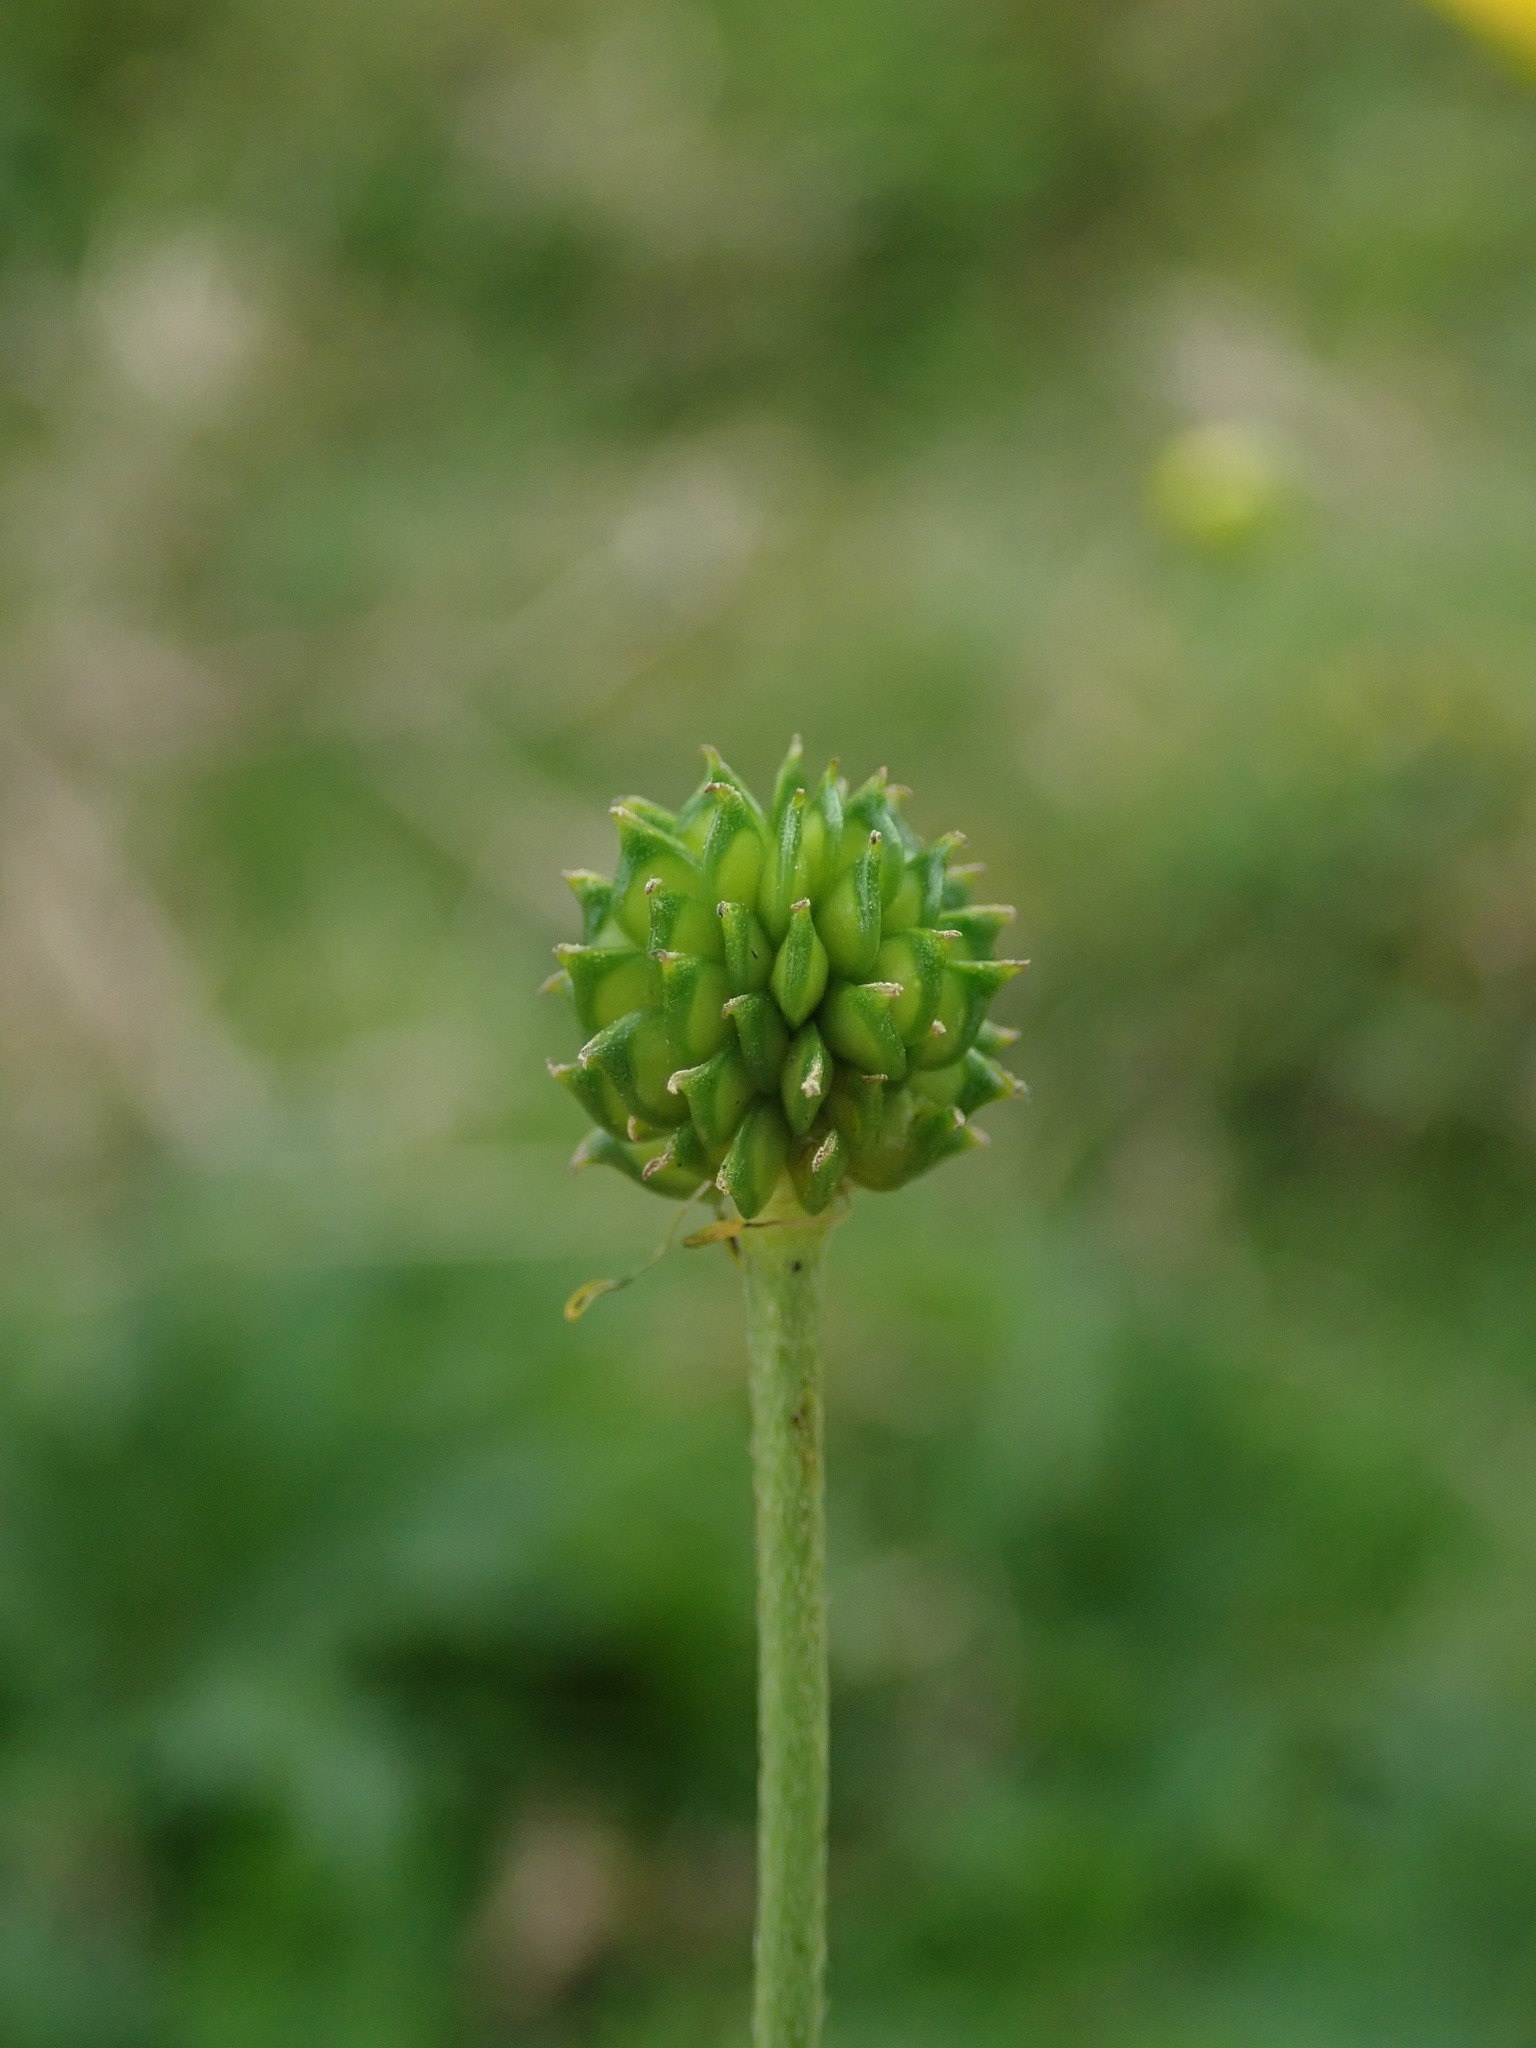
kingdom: Plantae
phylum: Tracheophyta
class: Magnoliopsida
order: Ranunculales
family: Ranunculaceae
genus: Ranunculus
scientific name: Ranunculus acris
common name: Meadow buttercup
